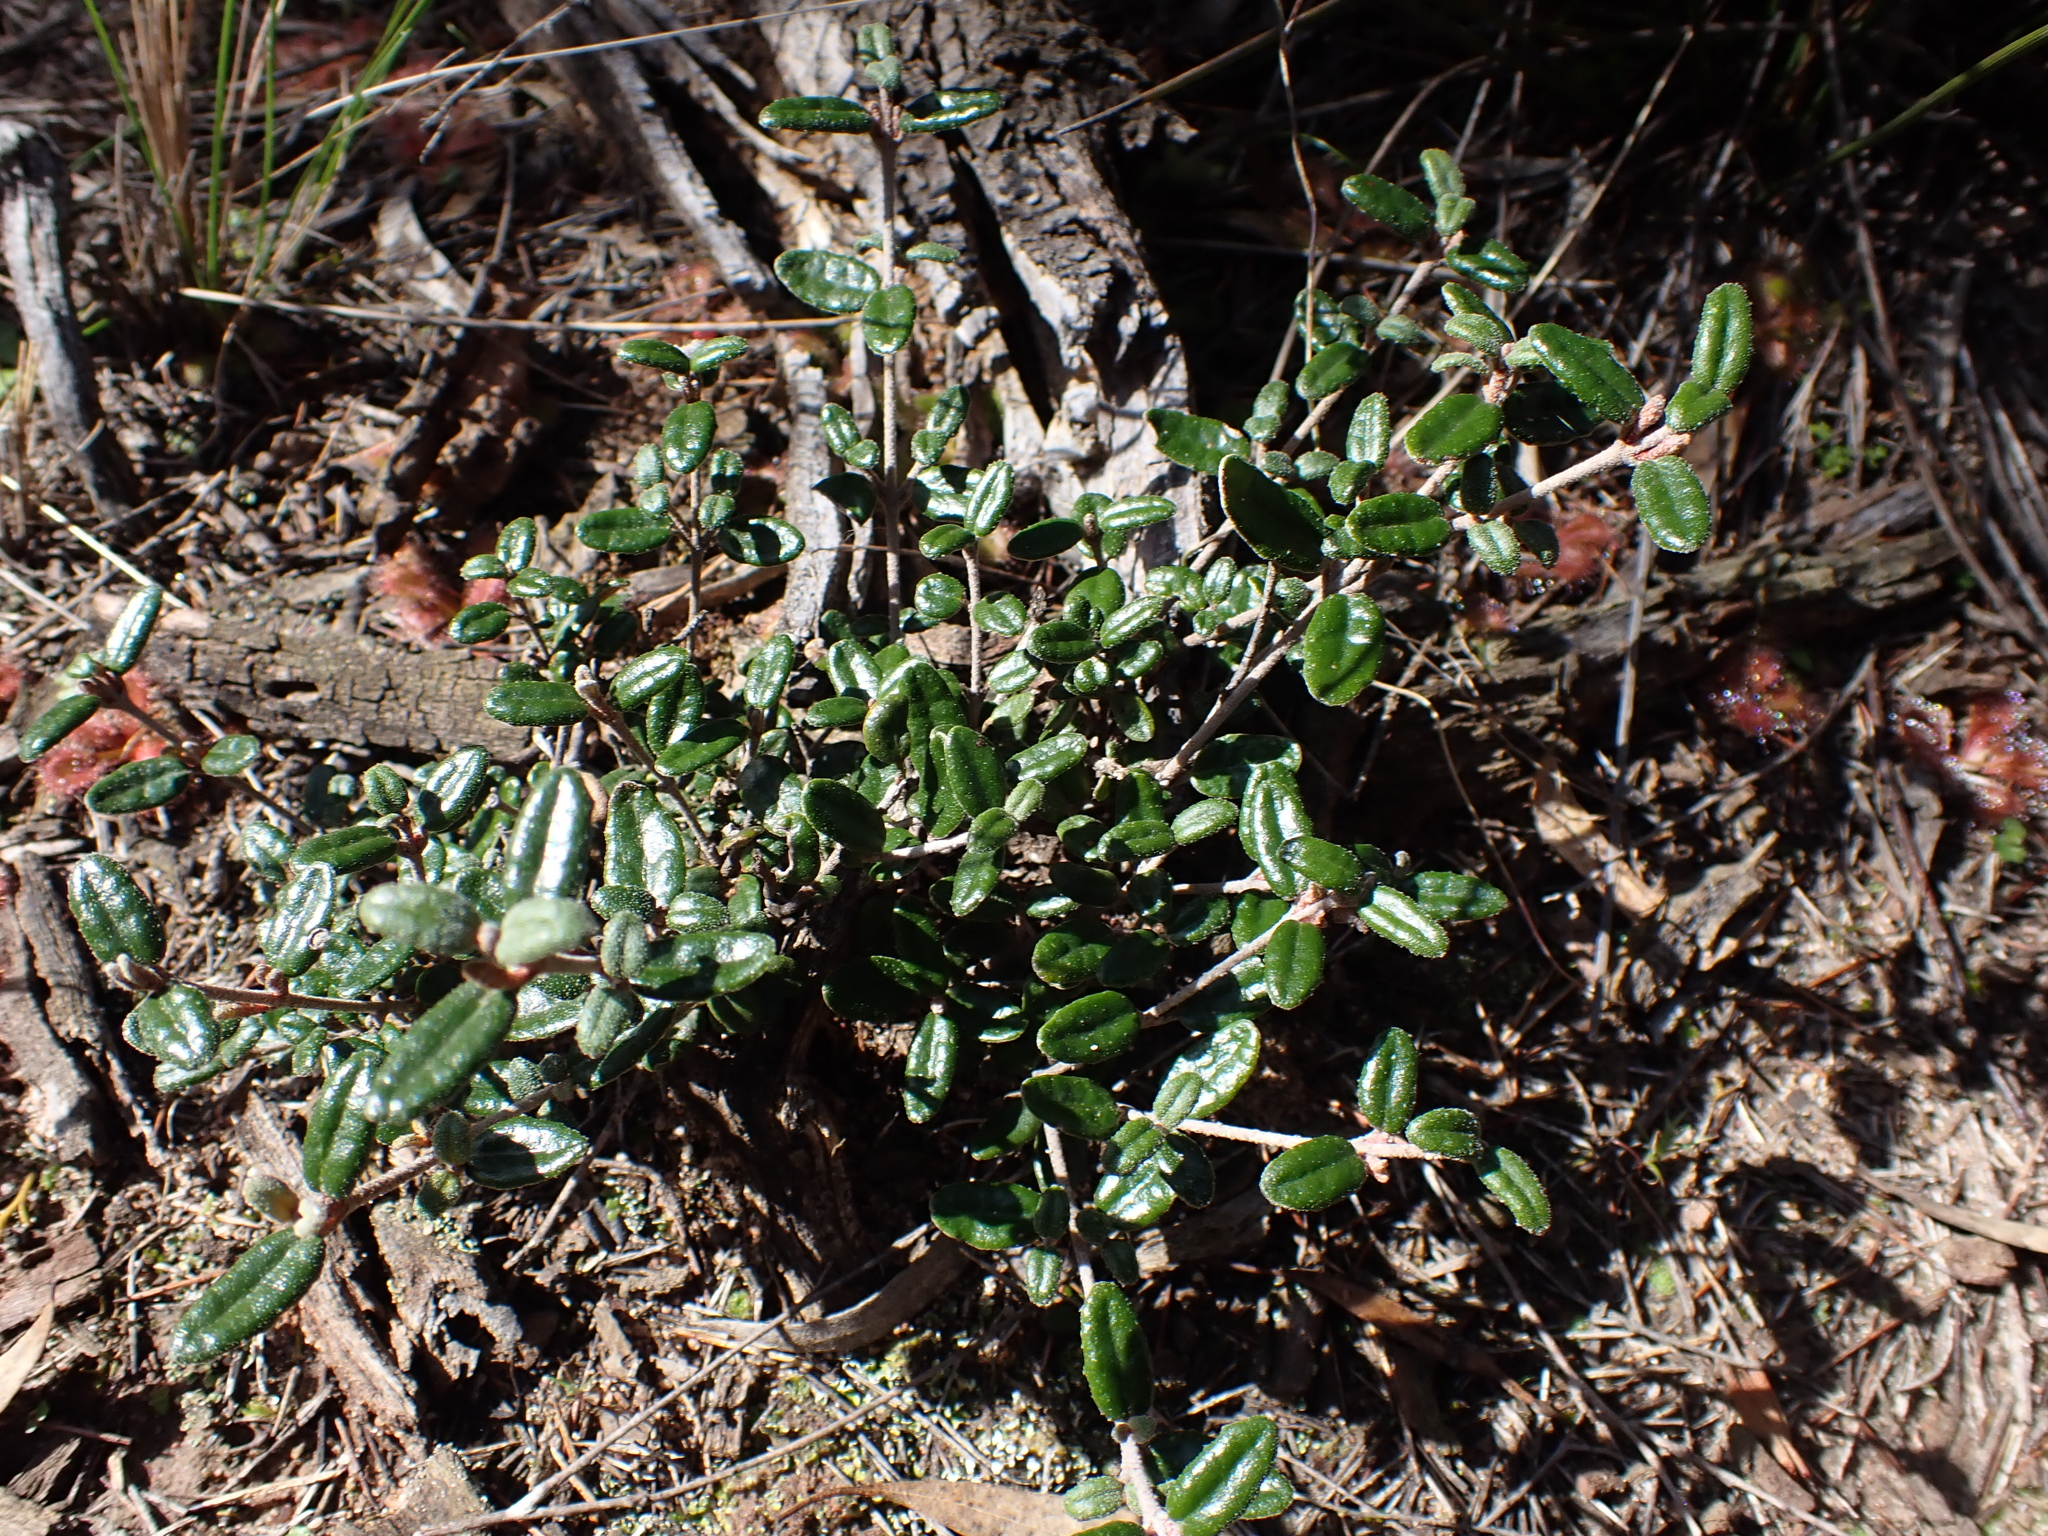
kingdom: Plantae
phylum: Tracheophyta
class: Magnoliopsida
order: Sapindales
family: Rutaceae
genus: Correa
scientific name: Correa reflexa
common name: Common correa
